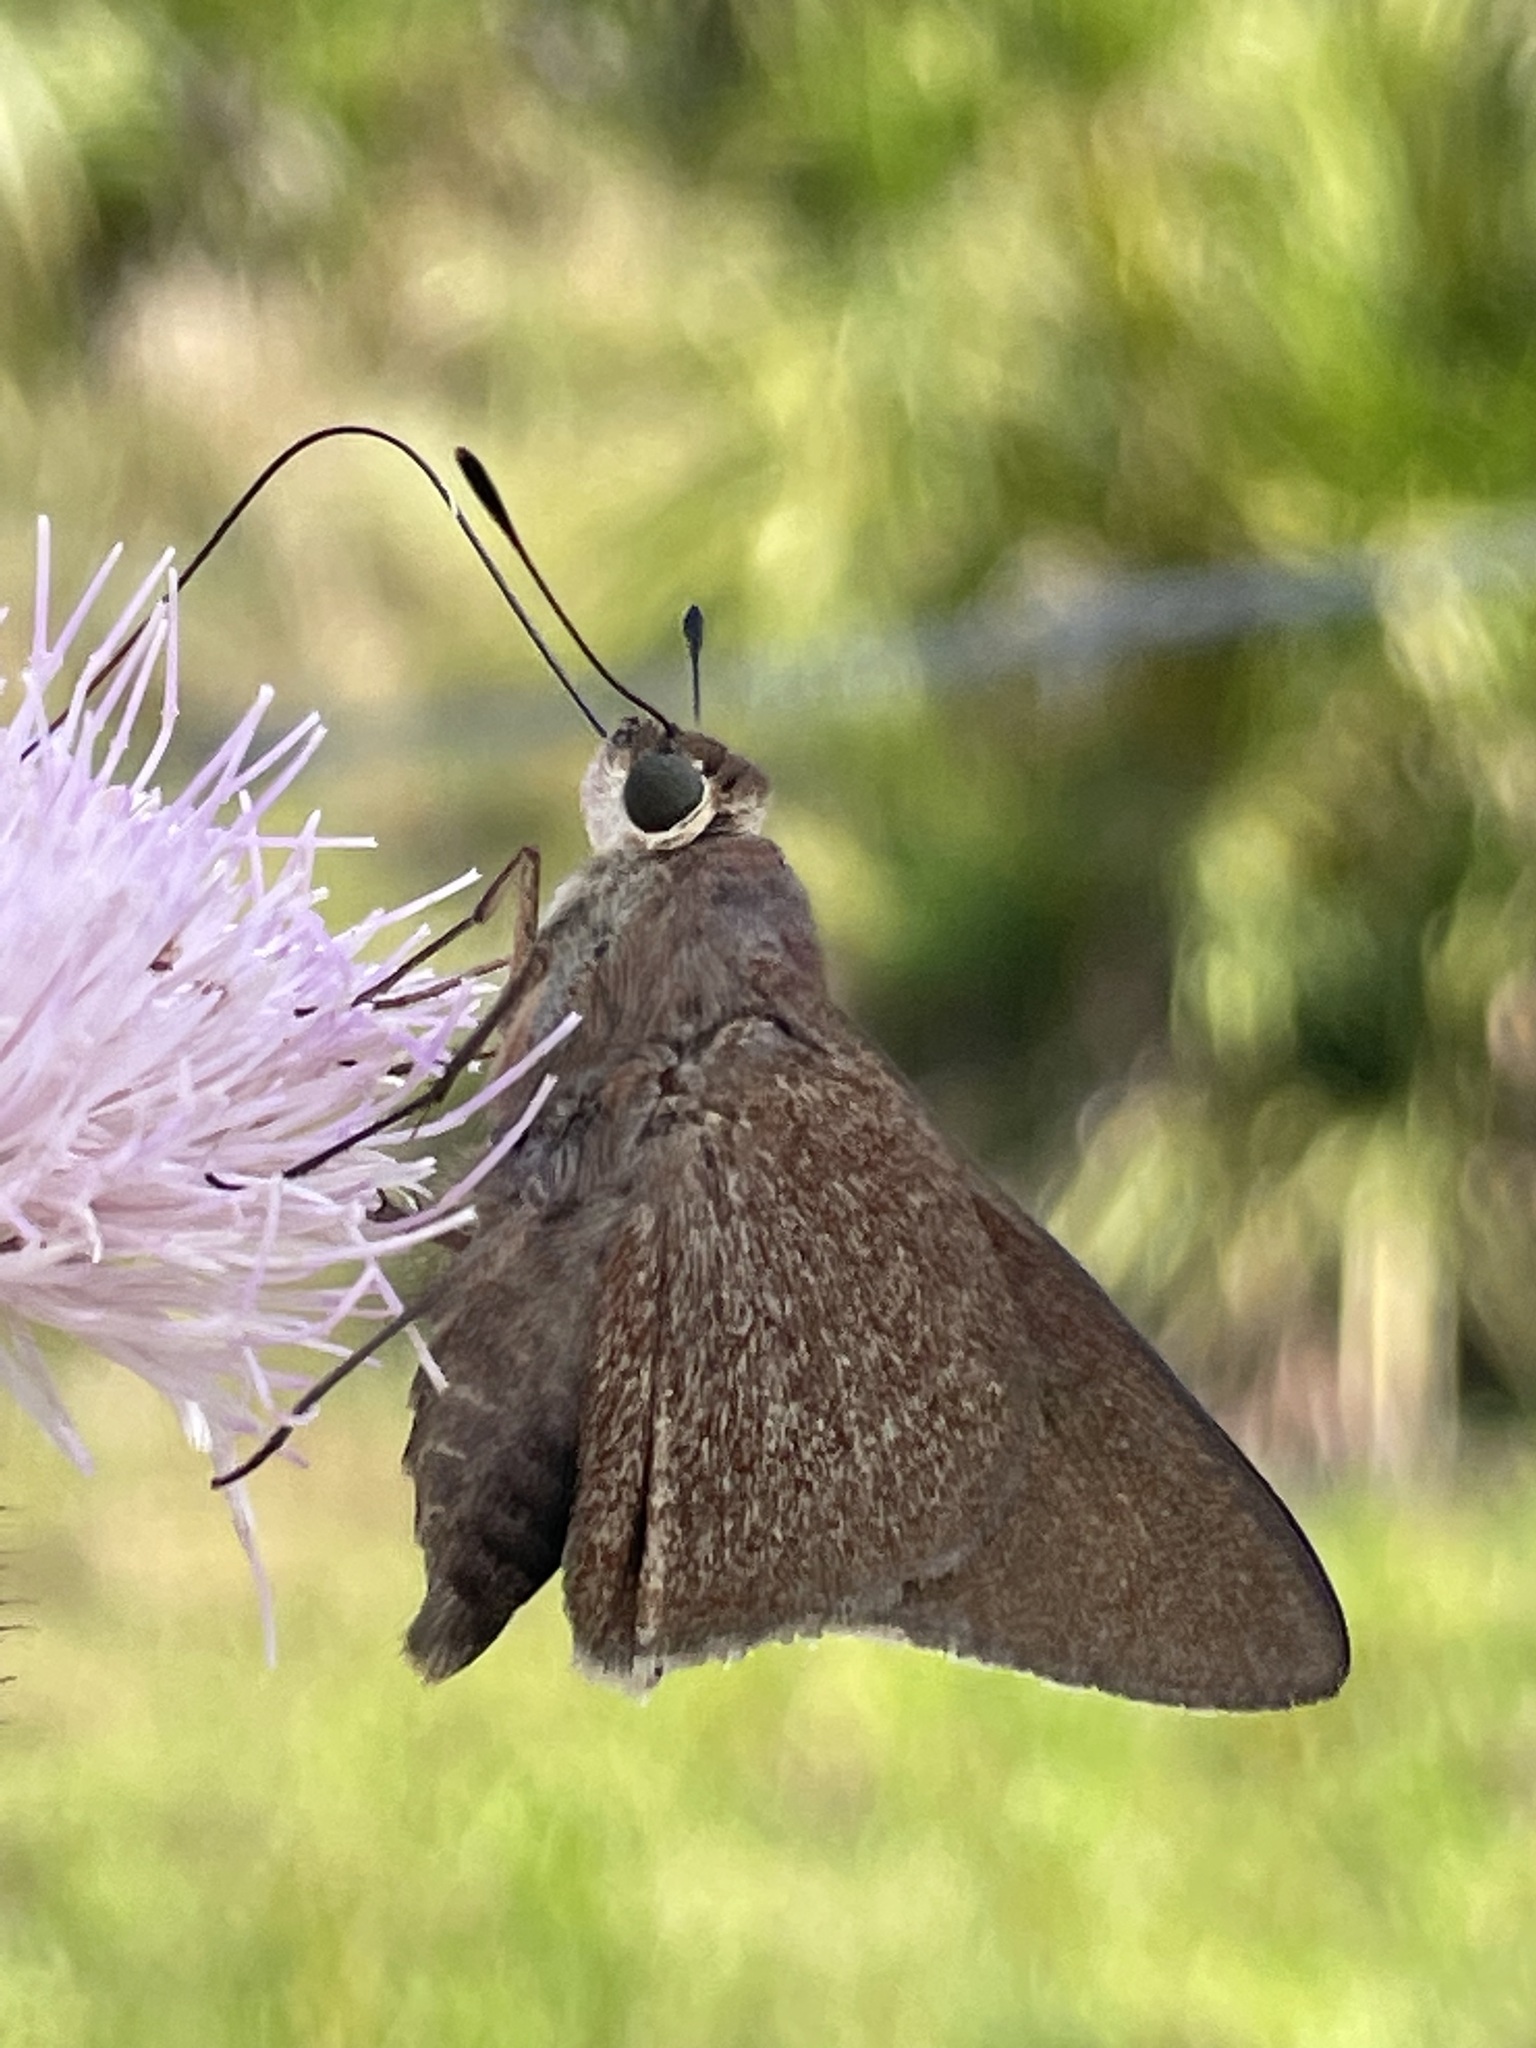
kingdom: Animalia
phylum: Arthropoda
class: Insecta
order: Lepidoptera
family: Hesperiidae
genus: Asbolis
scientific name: Asbolis capucinus
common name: Monk skipper
